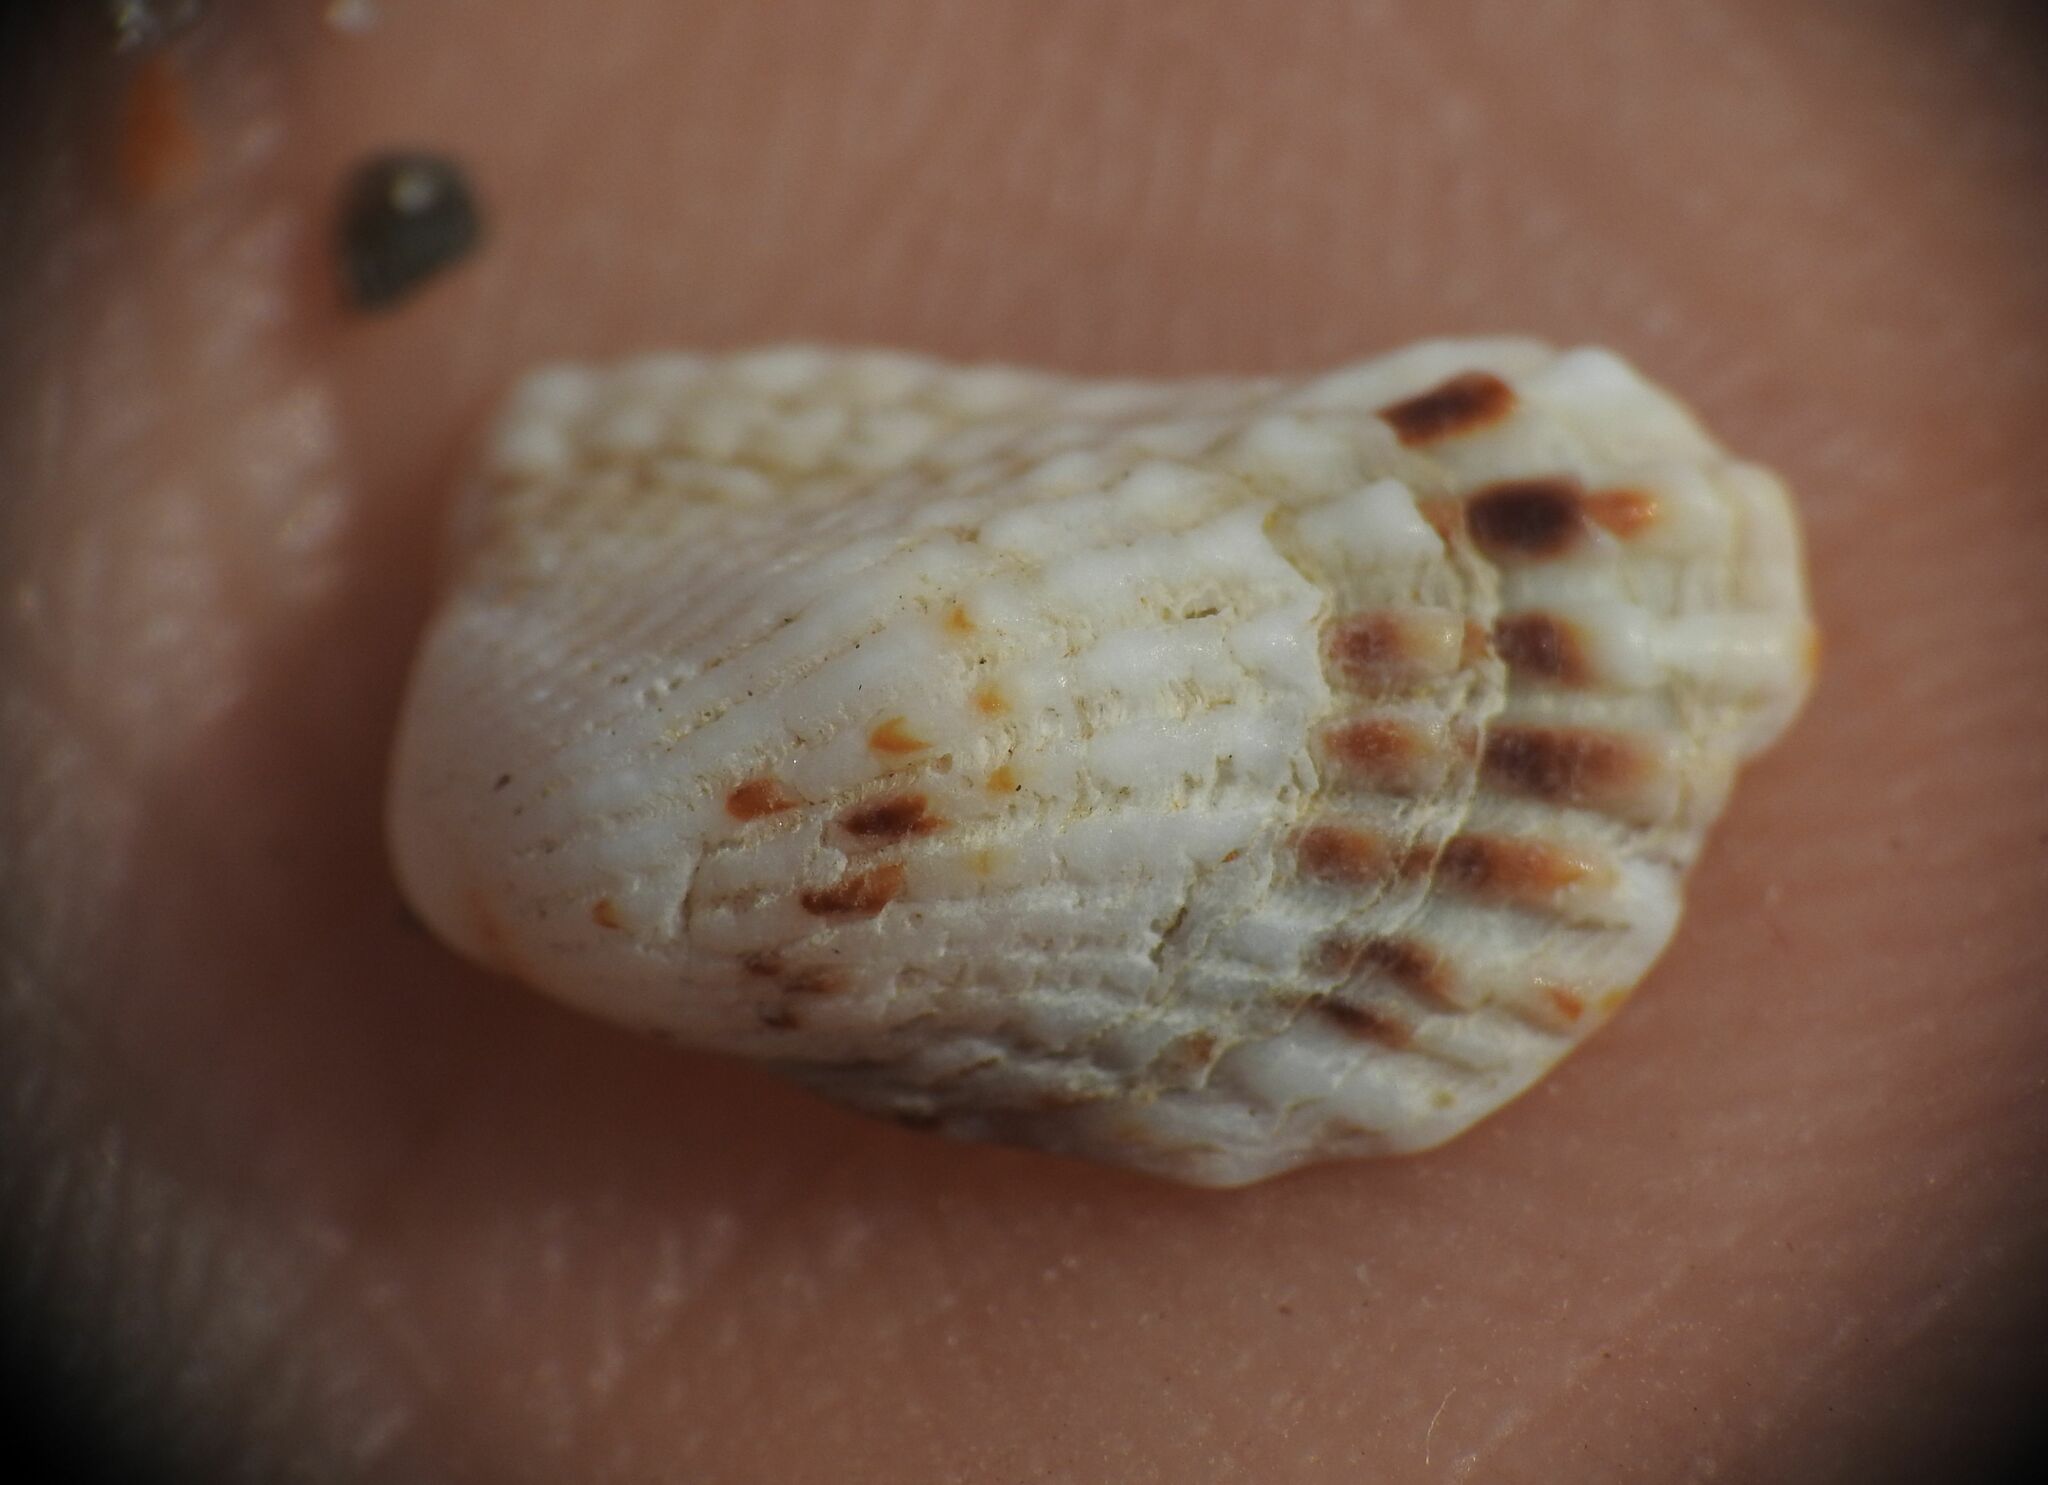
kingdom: Animalia
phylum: Mollusca
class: Bivalvia
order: Carditida
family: Carditidae
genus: Cardita
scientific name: Cardita calyculata
